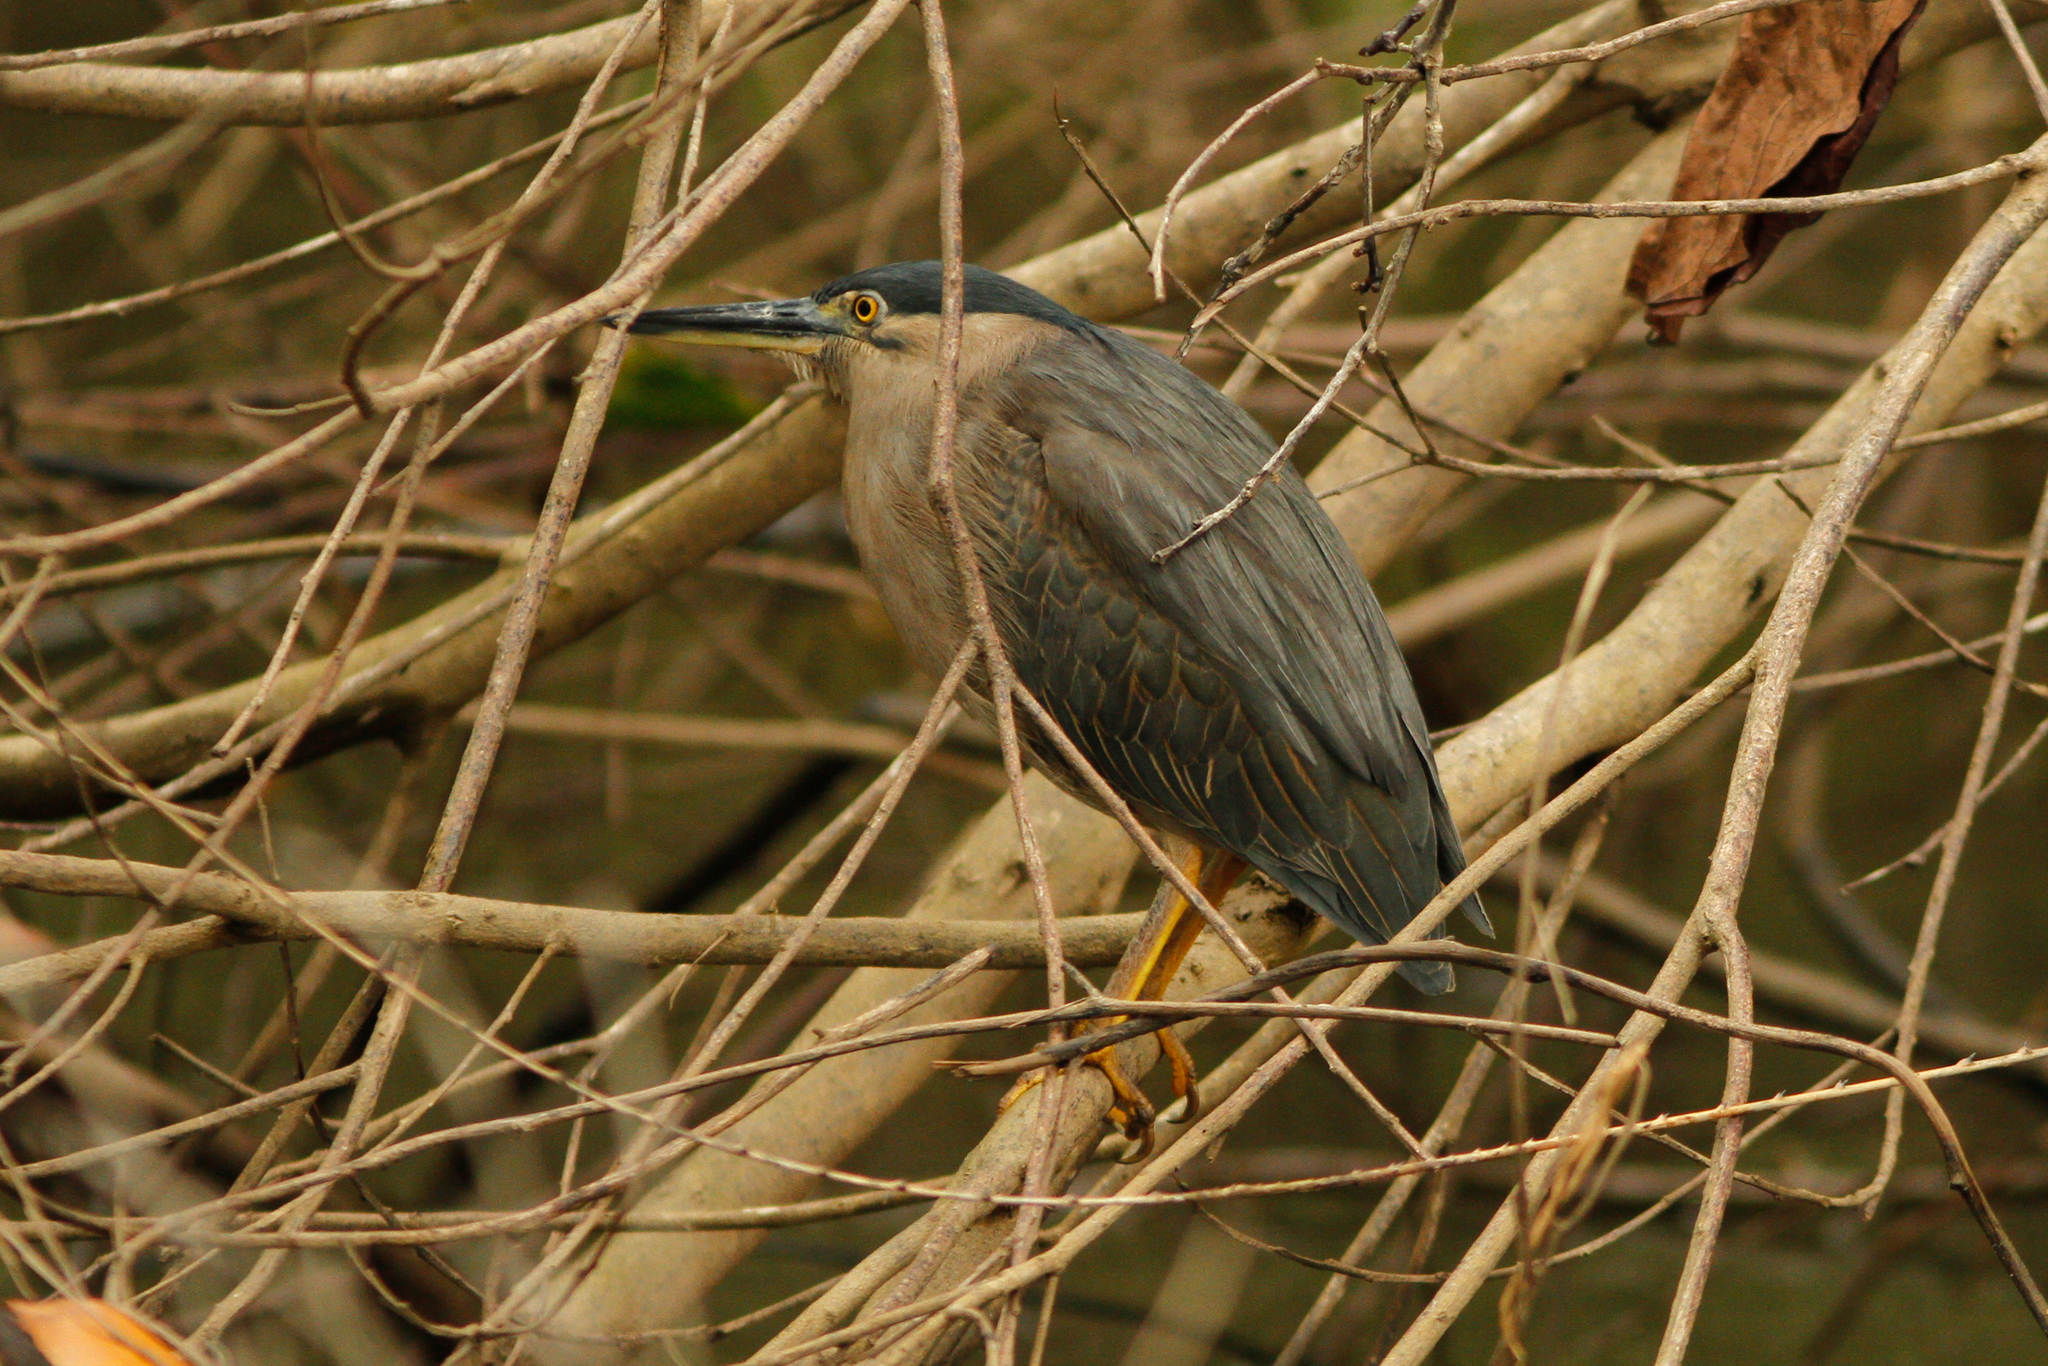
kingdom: Animalia
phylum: Chordata
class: Aves
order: Pelecaniformes
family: Ardeidae
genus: Butorides
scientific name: Butorides striata
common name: Striated heron
